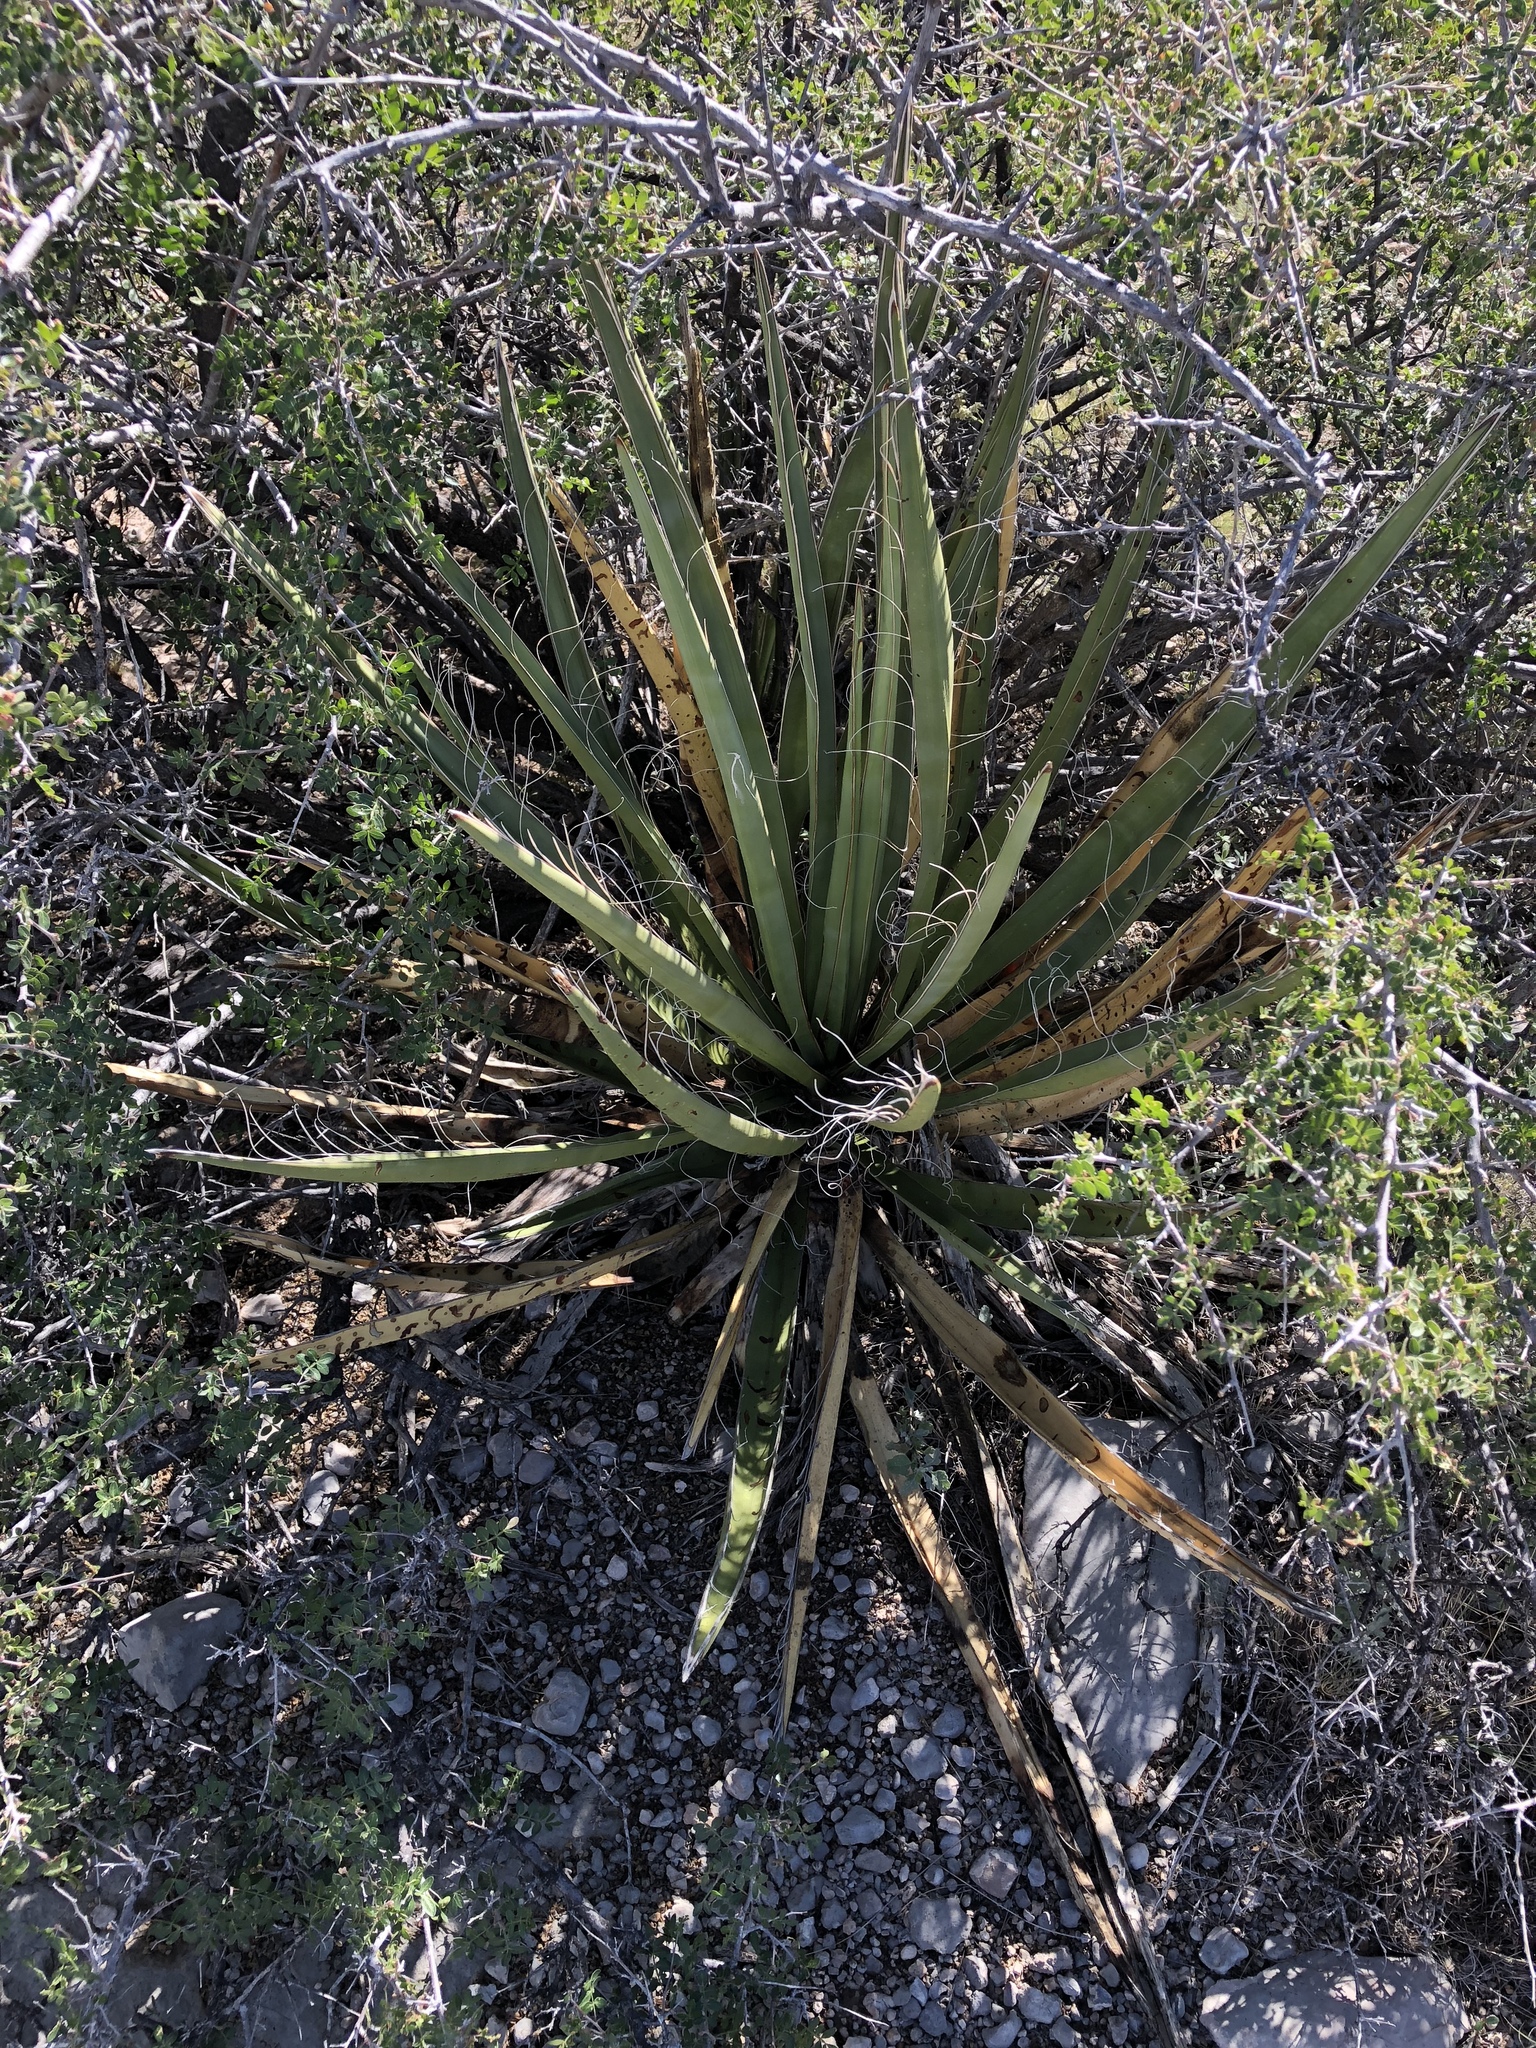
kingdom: Plantae
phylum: Tracheophyta
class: Liliopsida
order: Asparagales
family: Asparagaceae
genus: Yucca
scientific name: Yucca baccata
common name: Banana yucca
